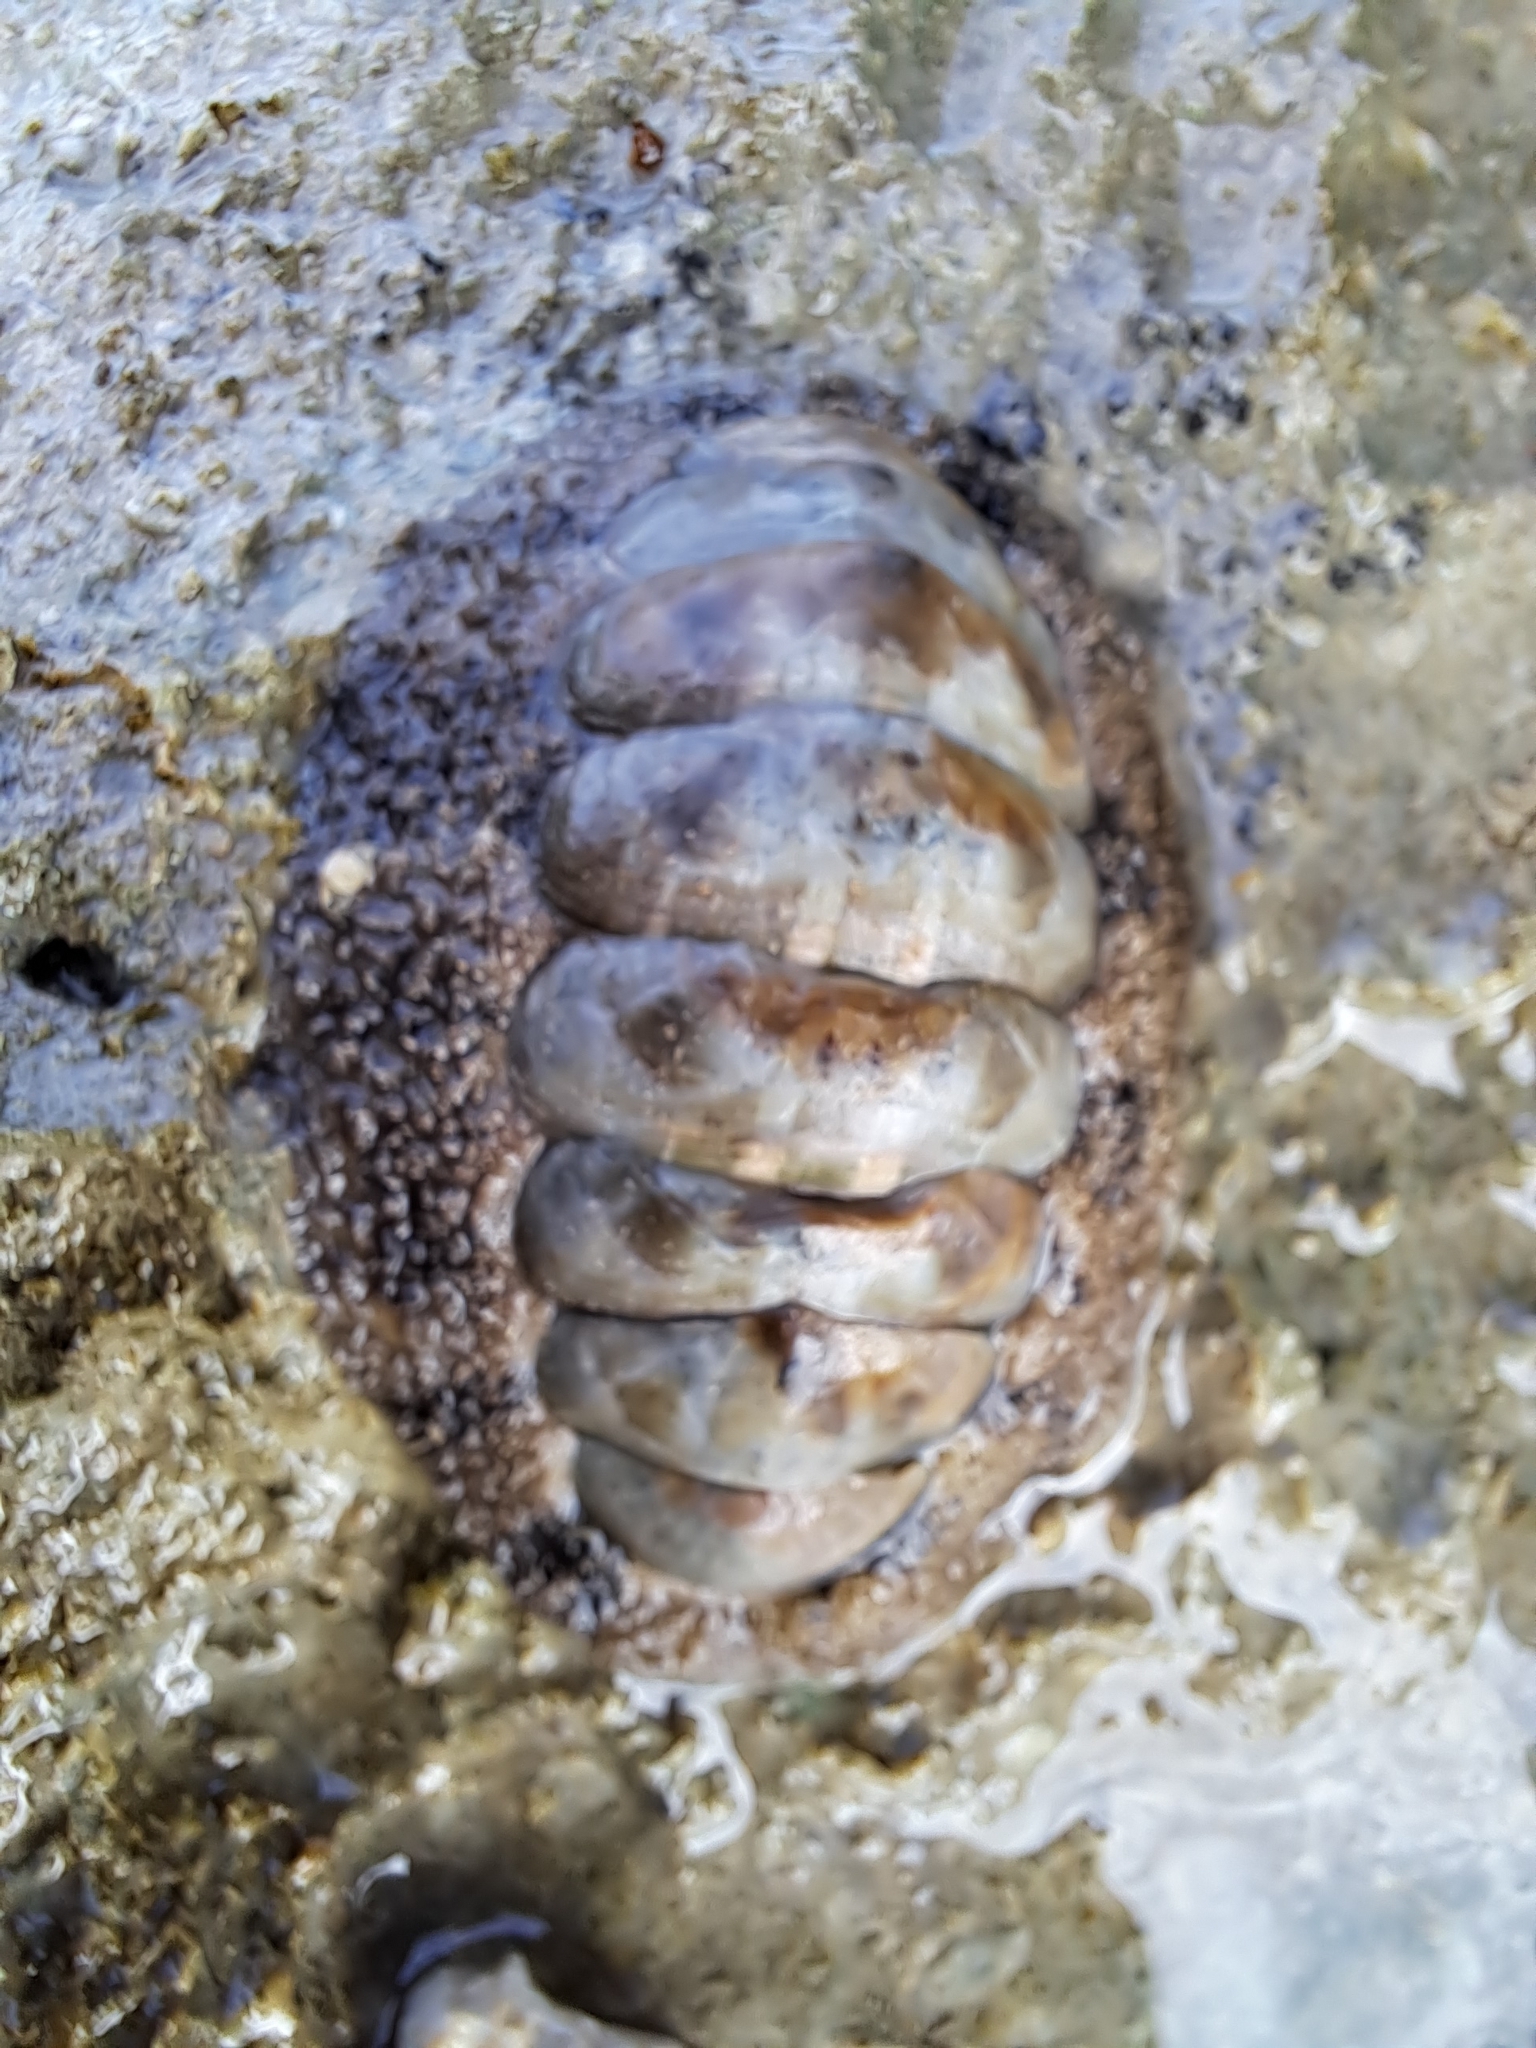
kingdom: Animalia
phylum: Mollusca
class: Polyplacophora
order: Chitonida
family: Chitonidae
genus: Acanthopleura
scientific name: Acanthopleura vaillantii
